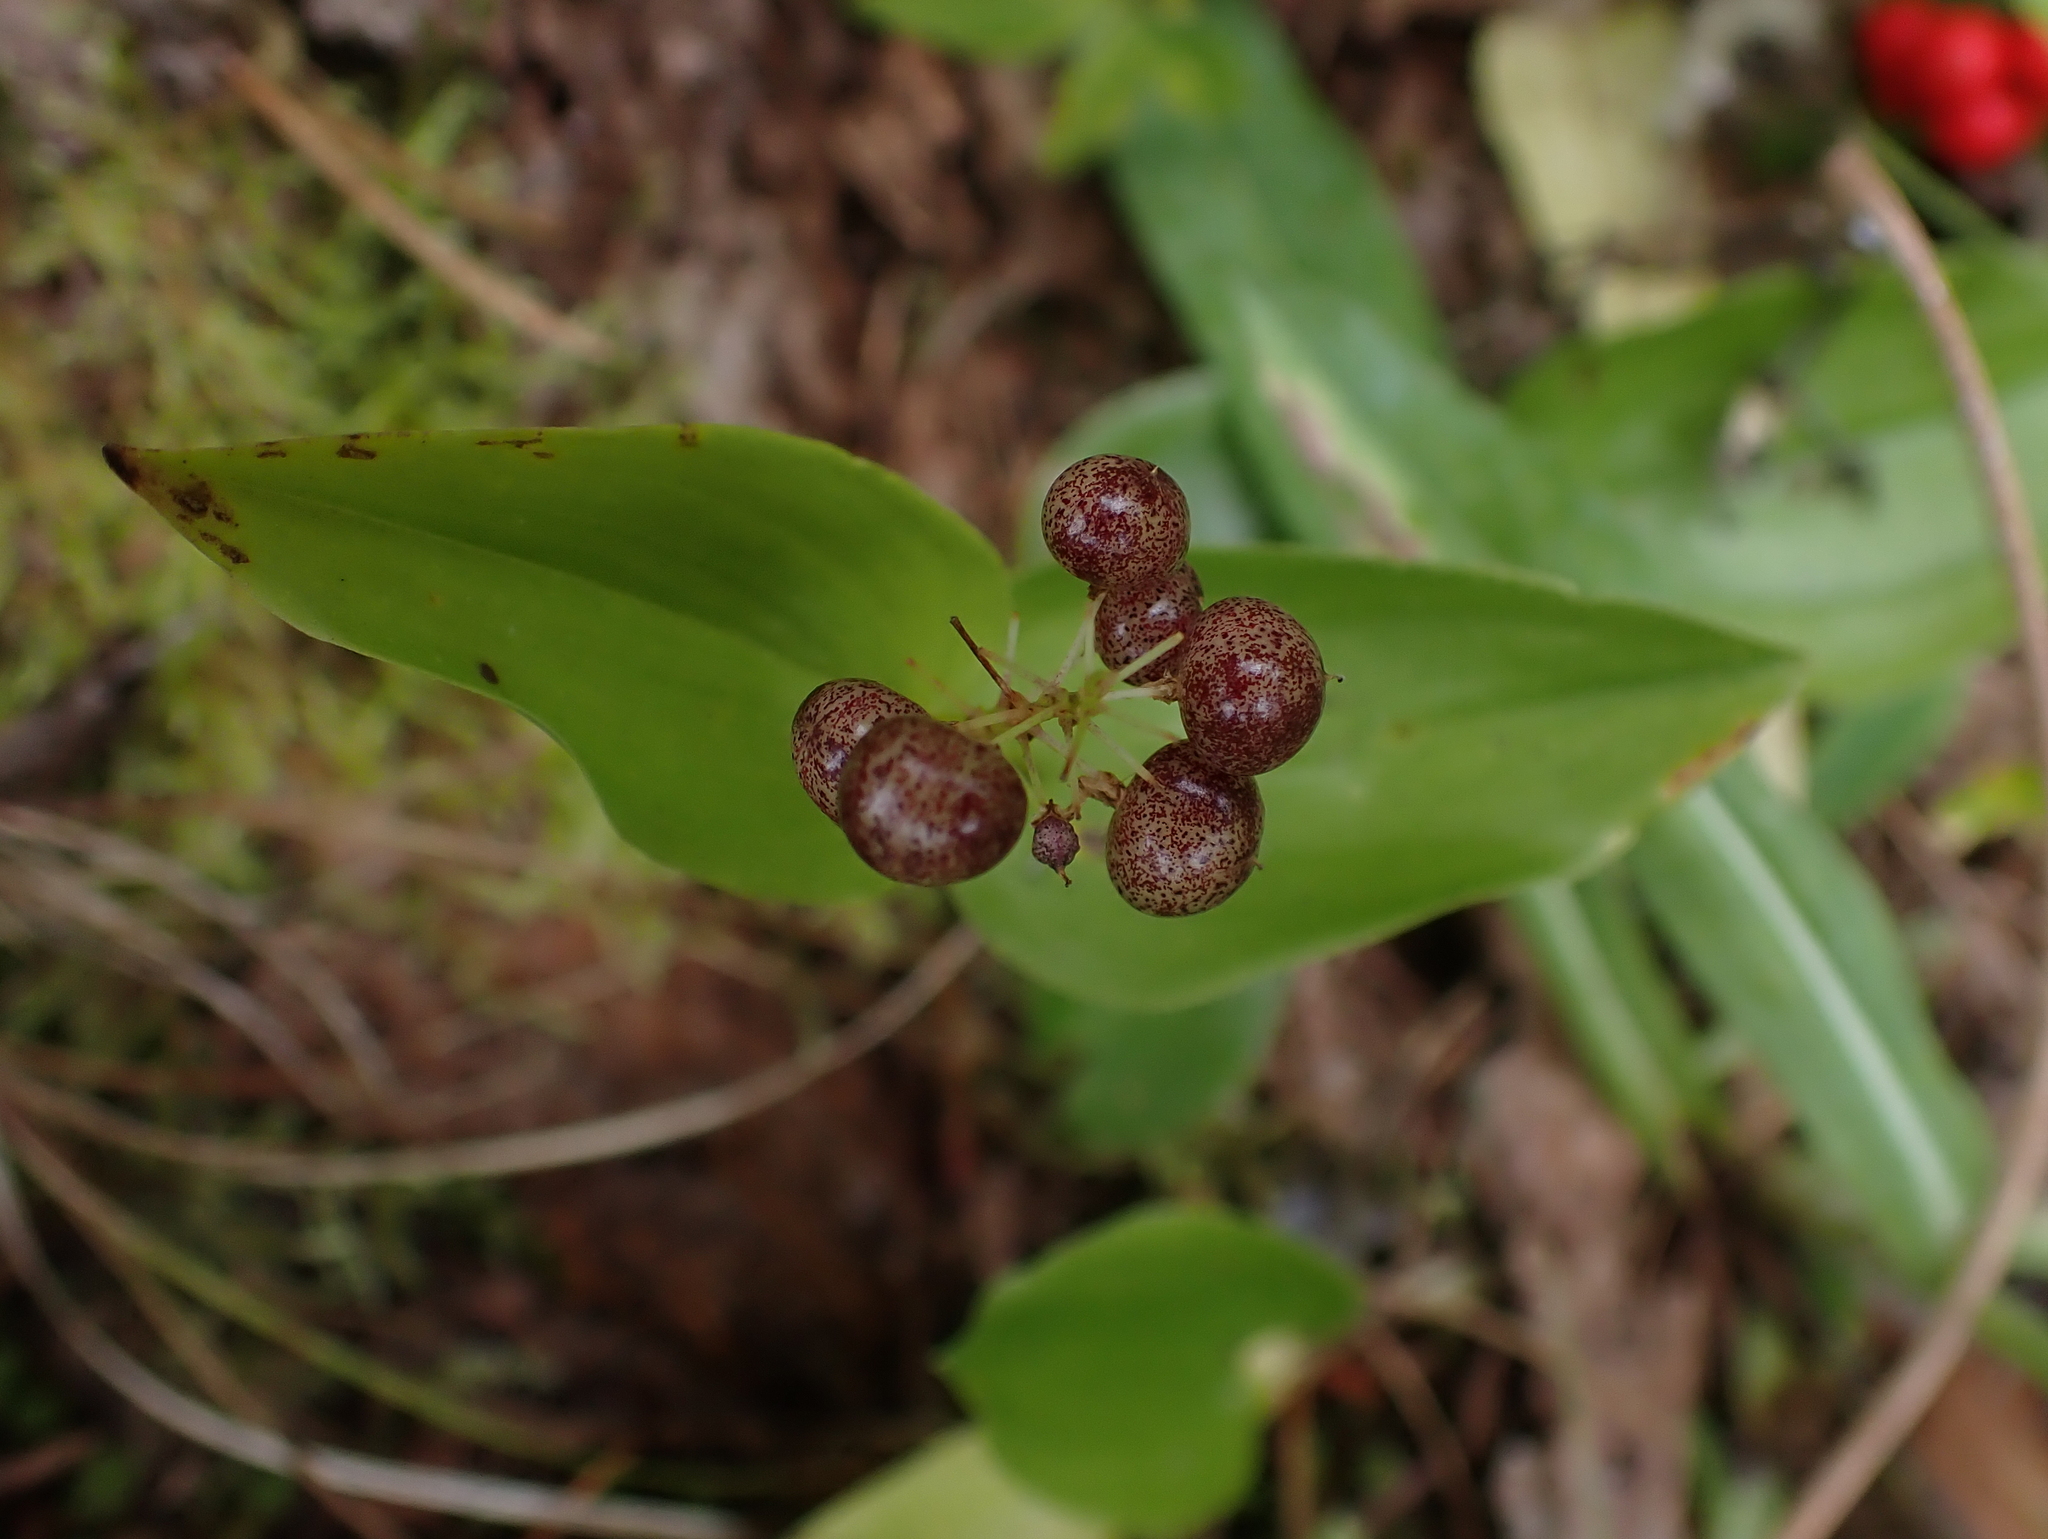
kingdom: Plantae
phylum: Tracheophyta
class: Liliopsida
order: Asparagales
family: Asparagaceae
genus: Maianthemum
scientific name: Maianthemum canadense
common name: False lily-of-the-valley
